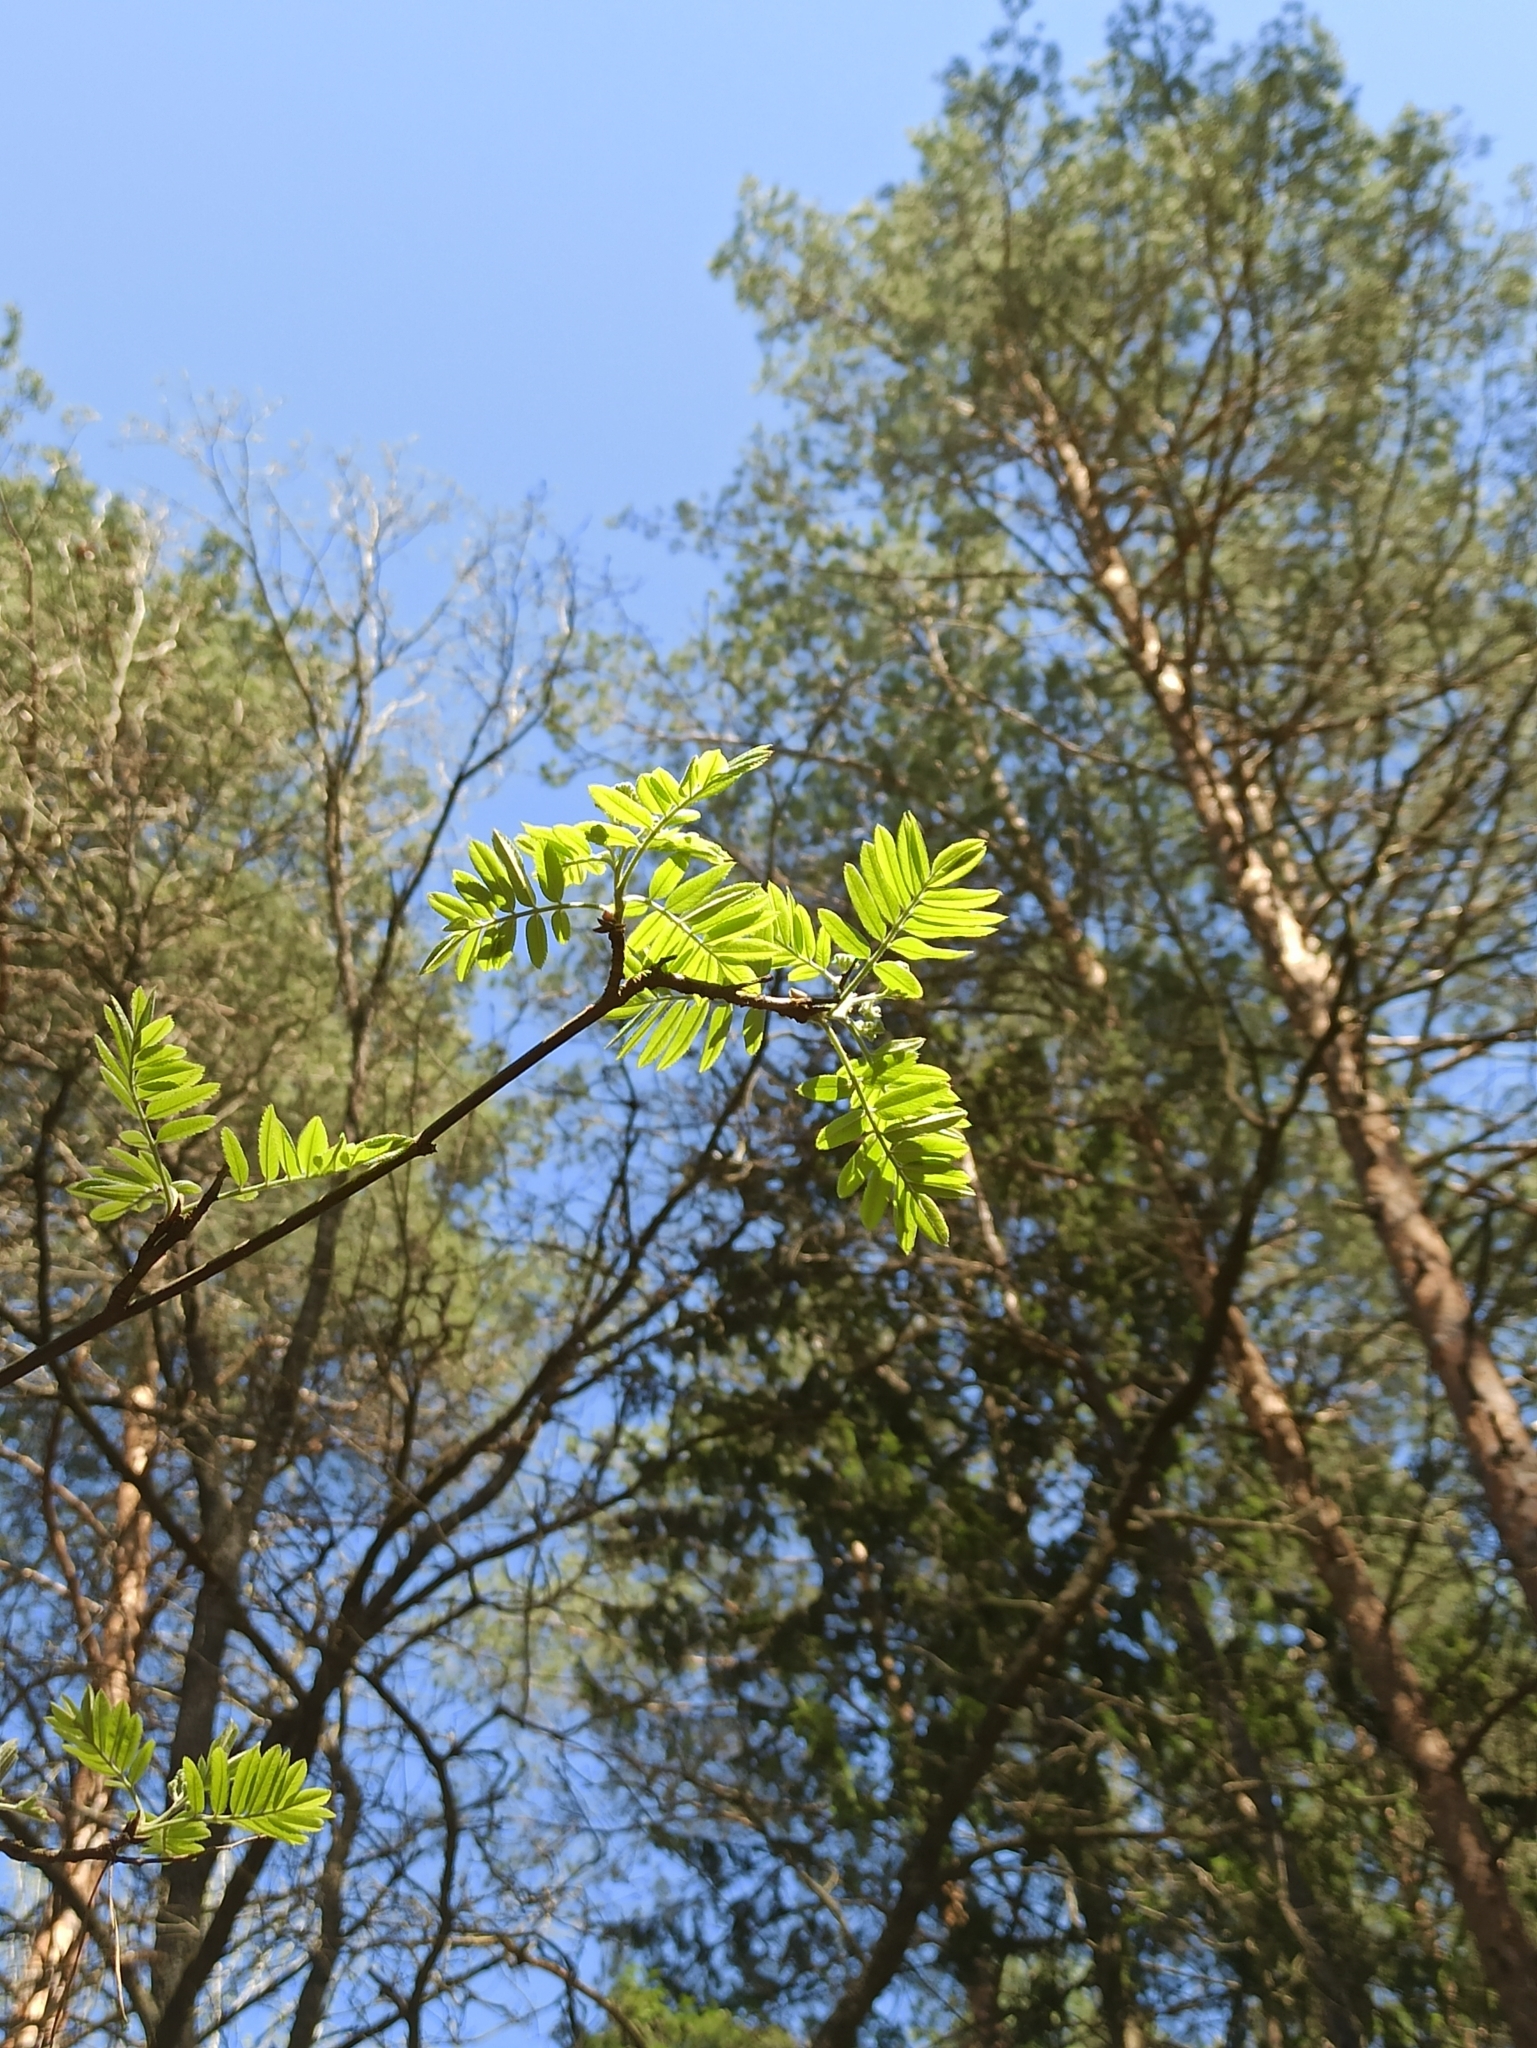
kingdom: Plantae
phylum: Tracheophyta
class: Magnoliopsida
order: Rosales
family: Rosaceae
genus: Sorbus
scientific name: Sorbus aucuparia
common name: Rowan
